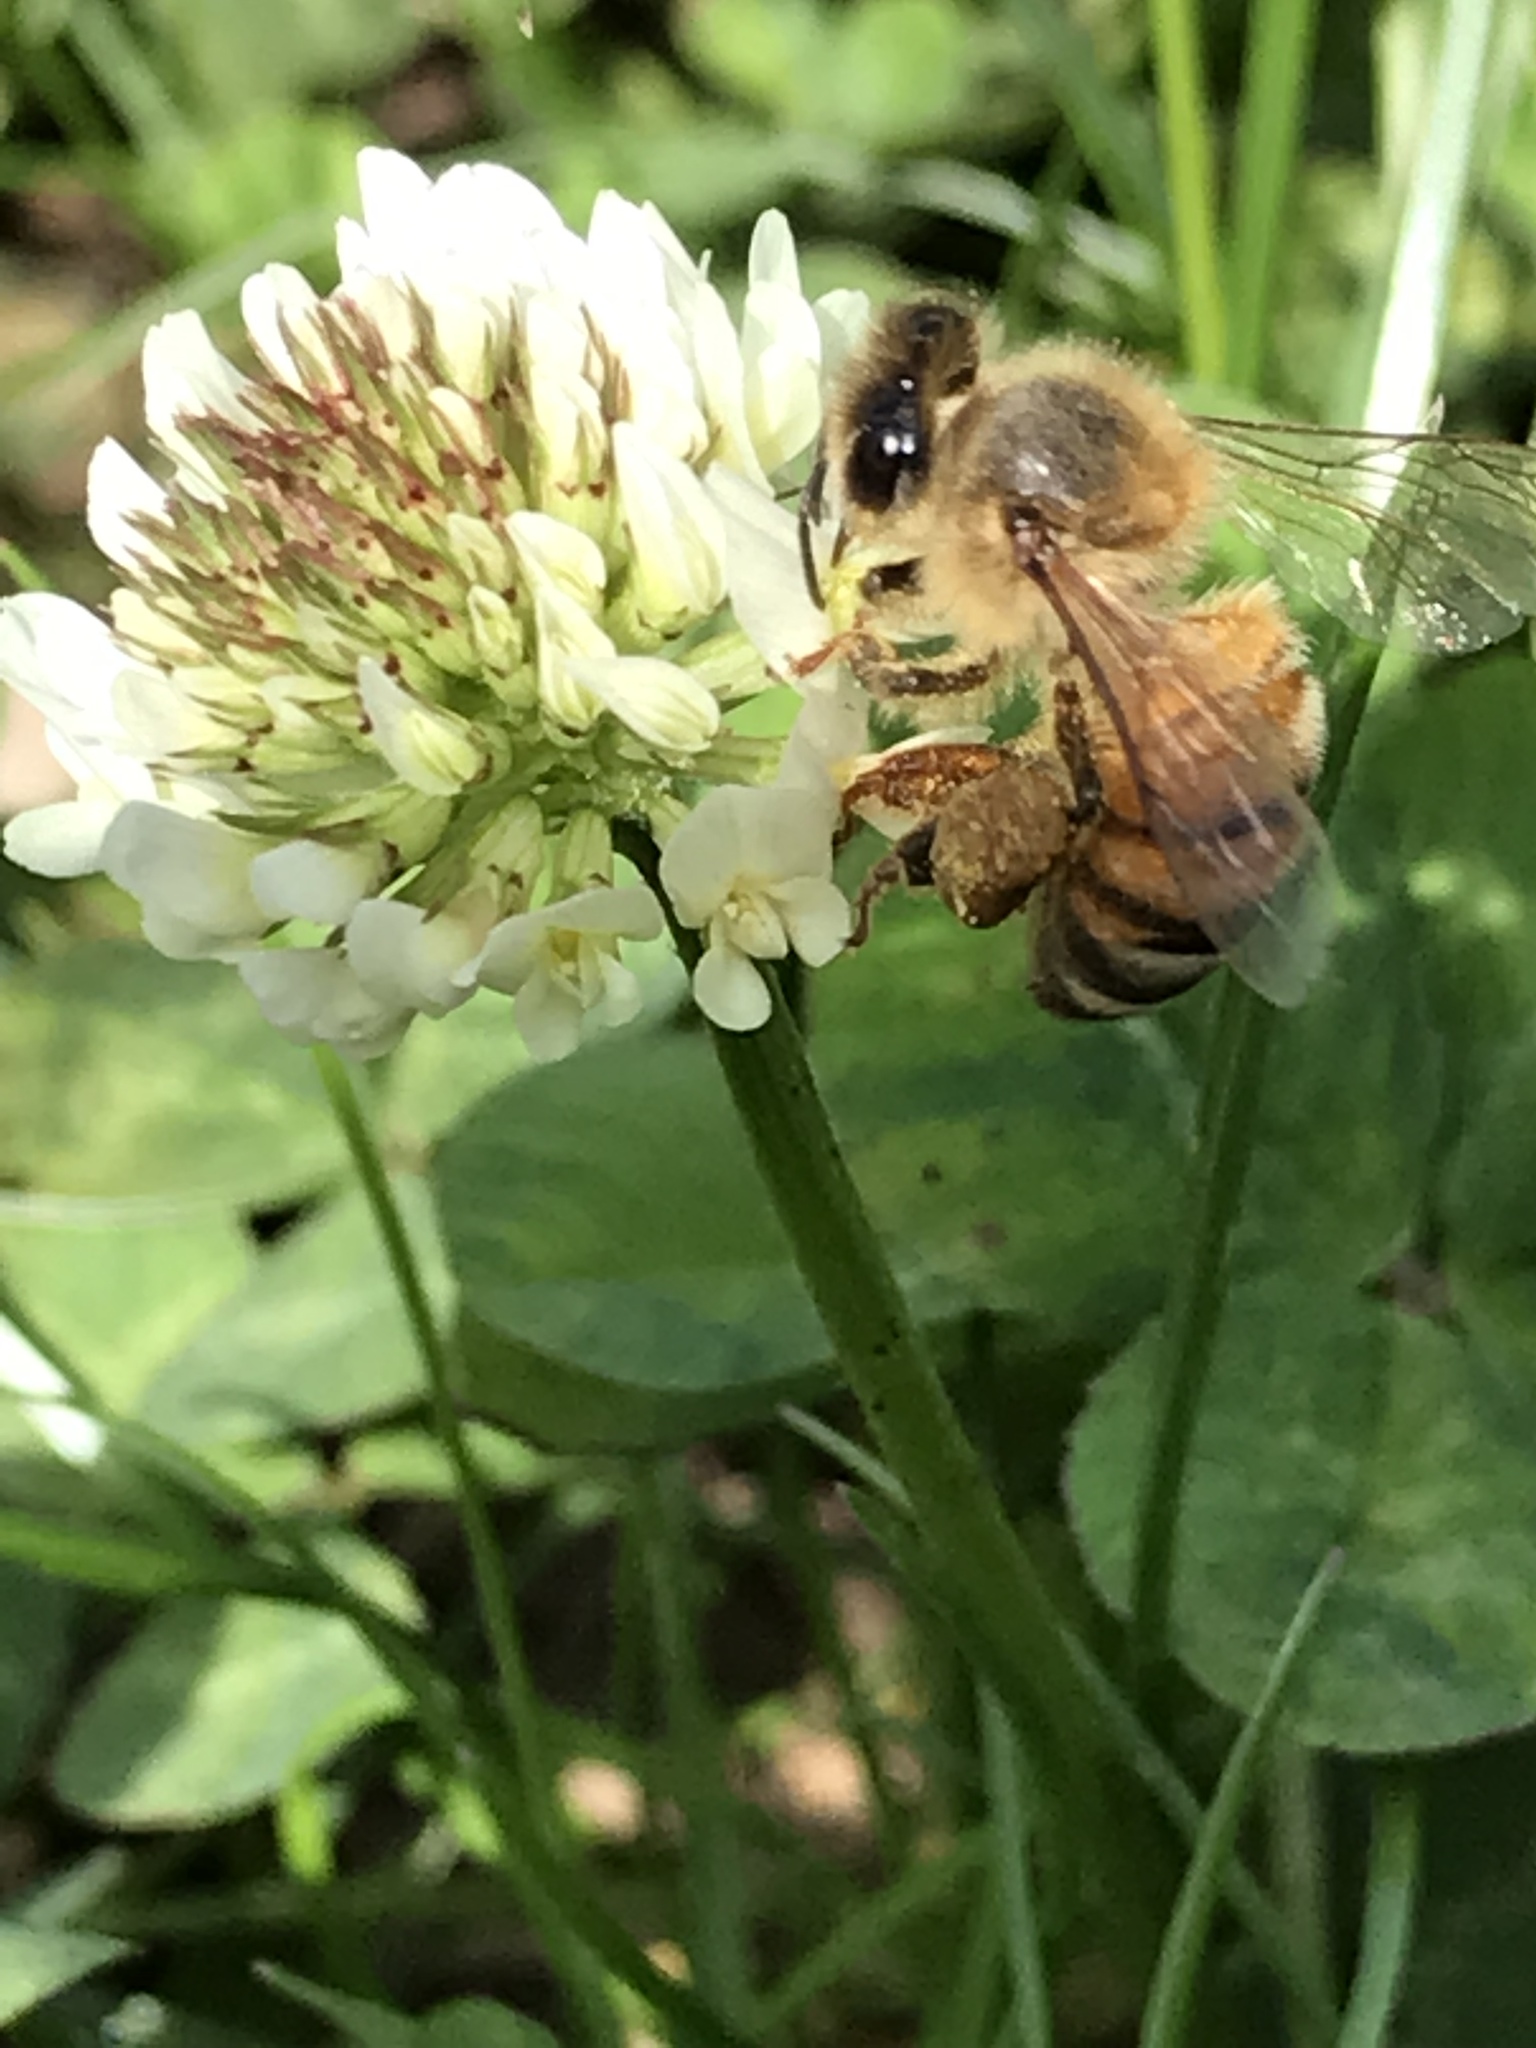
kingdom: Animalia
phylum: Arthropoda
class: Insecta
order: Hymenoptera
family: Apidae
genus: Apis
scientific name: Apis mellifera
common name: Honey bee
